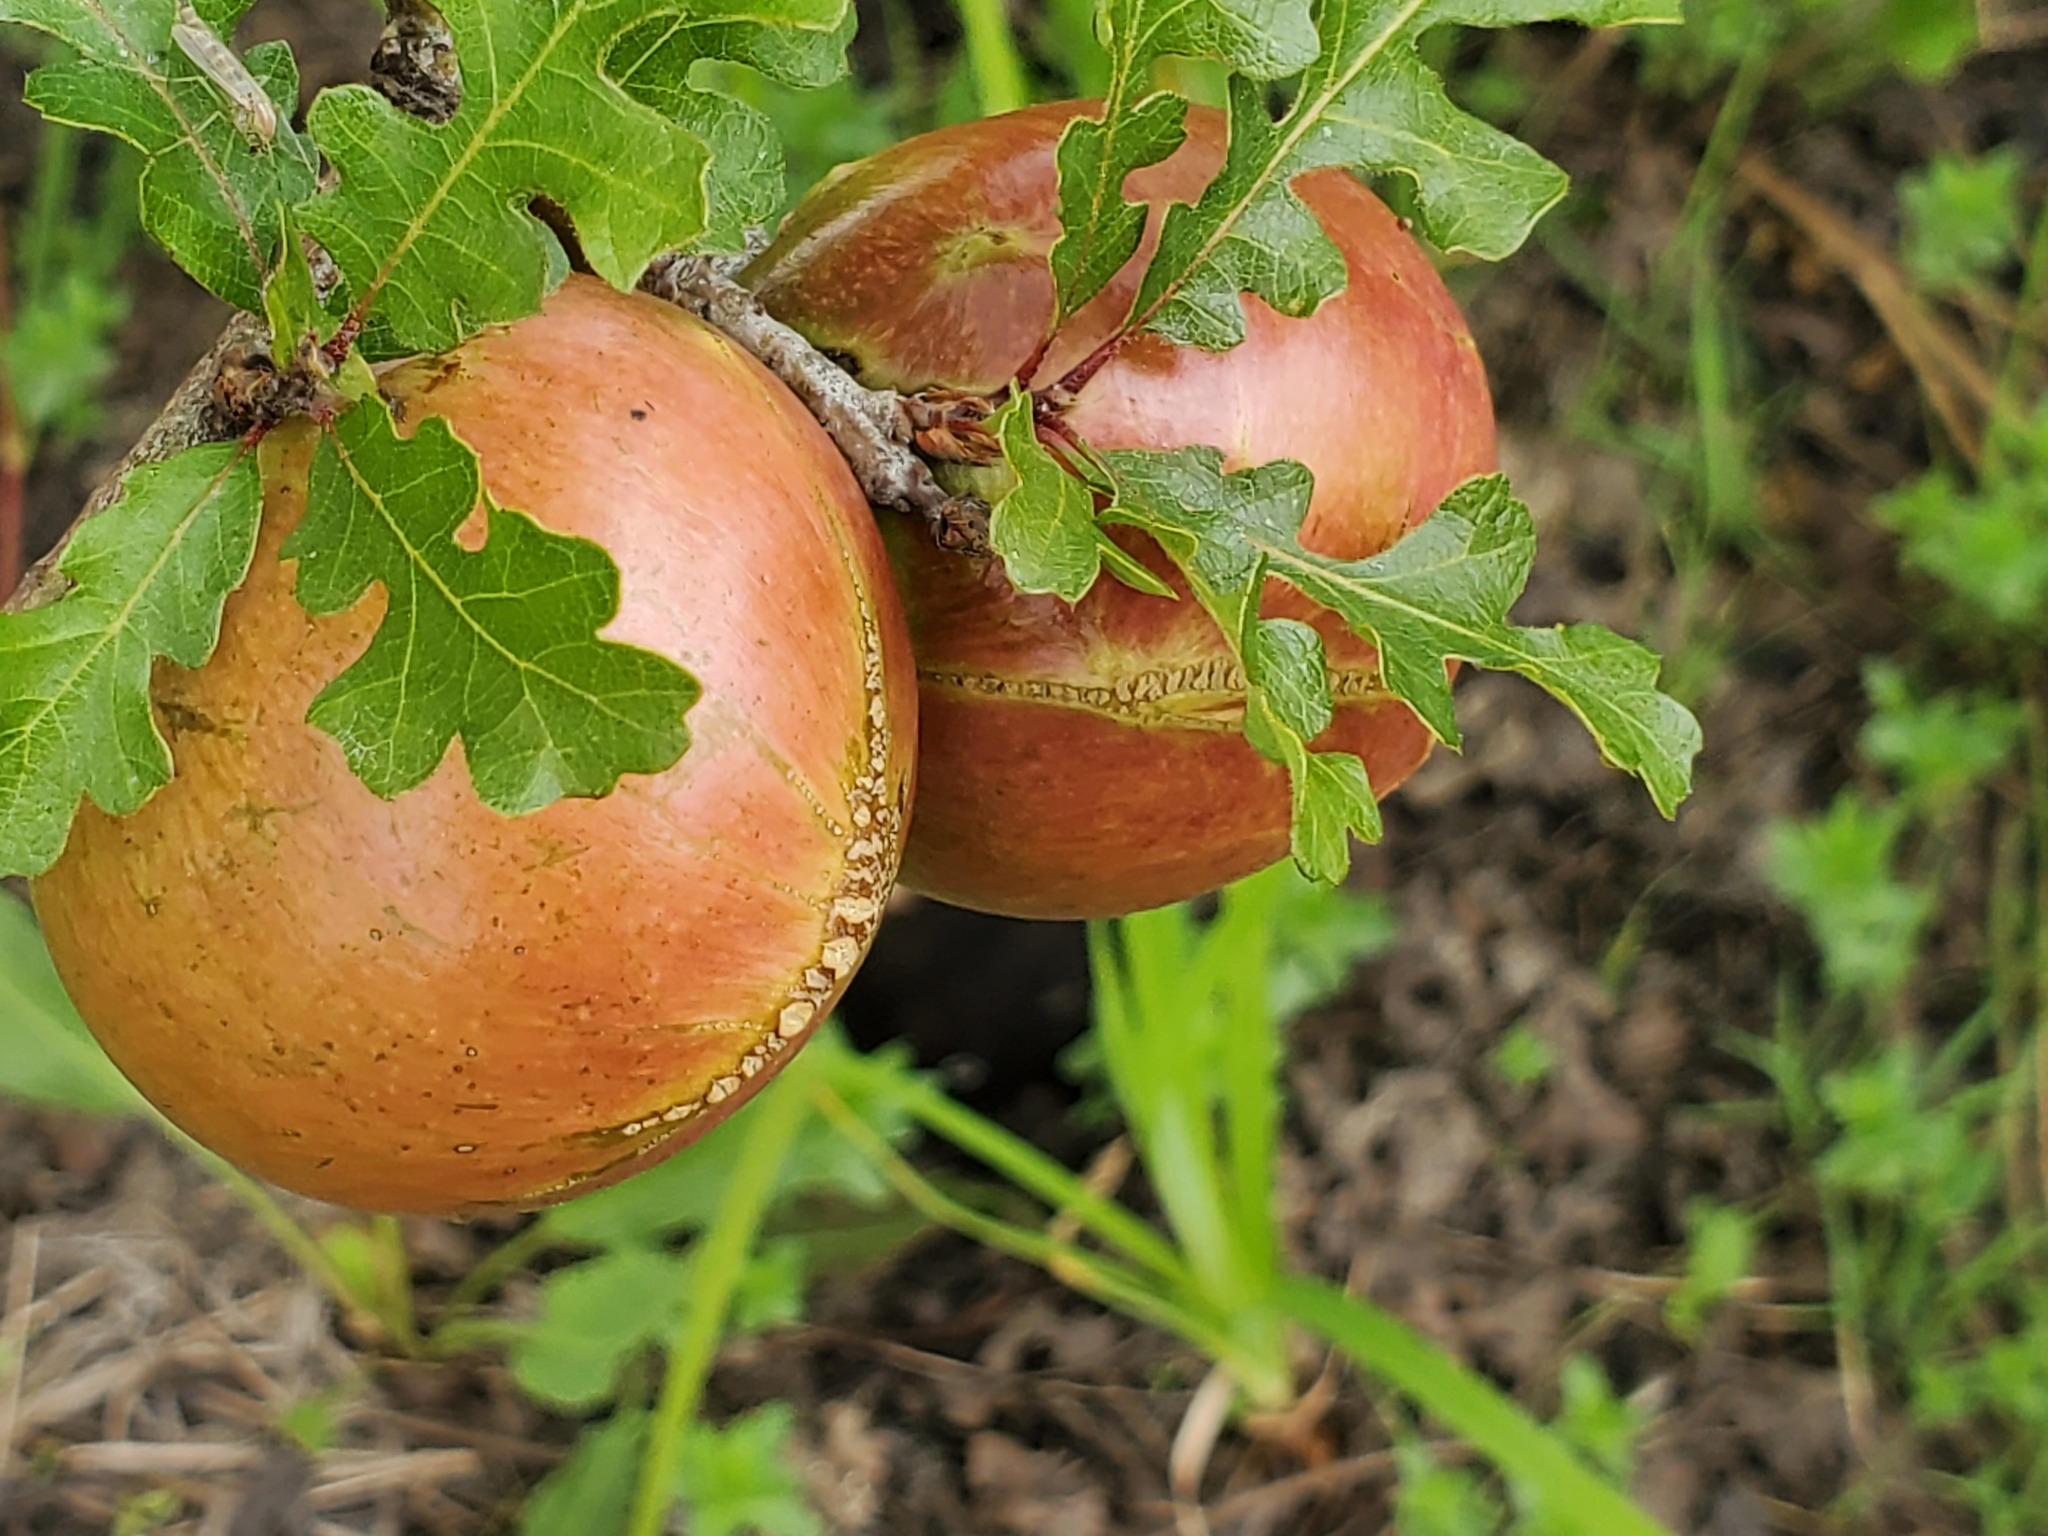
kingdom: Animalia
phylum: Arthropoda
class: Insecta
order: Hymenoptera
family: Cynipidae
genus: Andricus
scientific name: Andricus quercuscalifornicus
